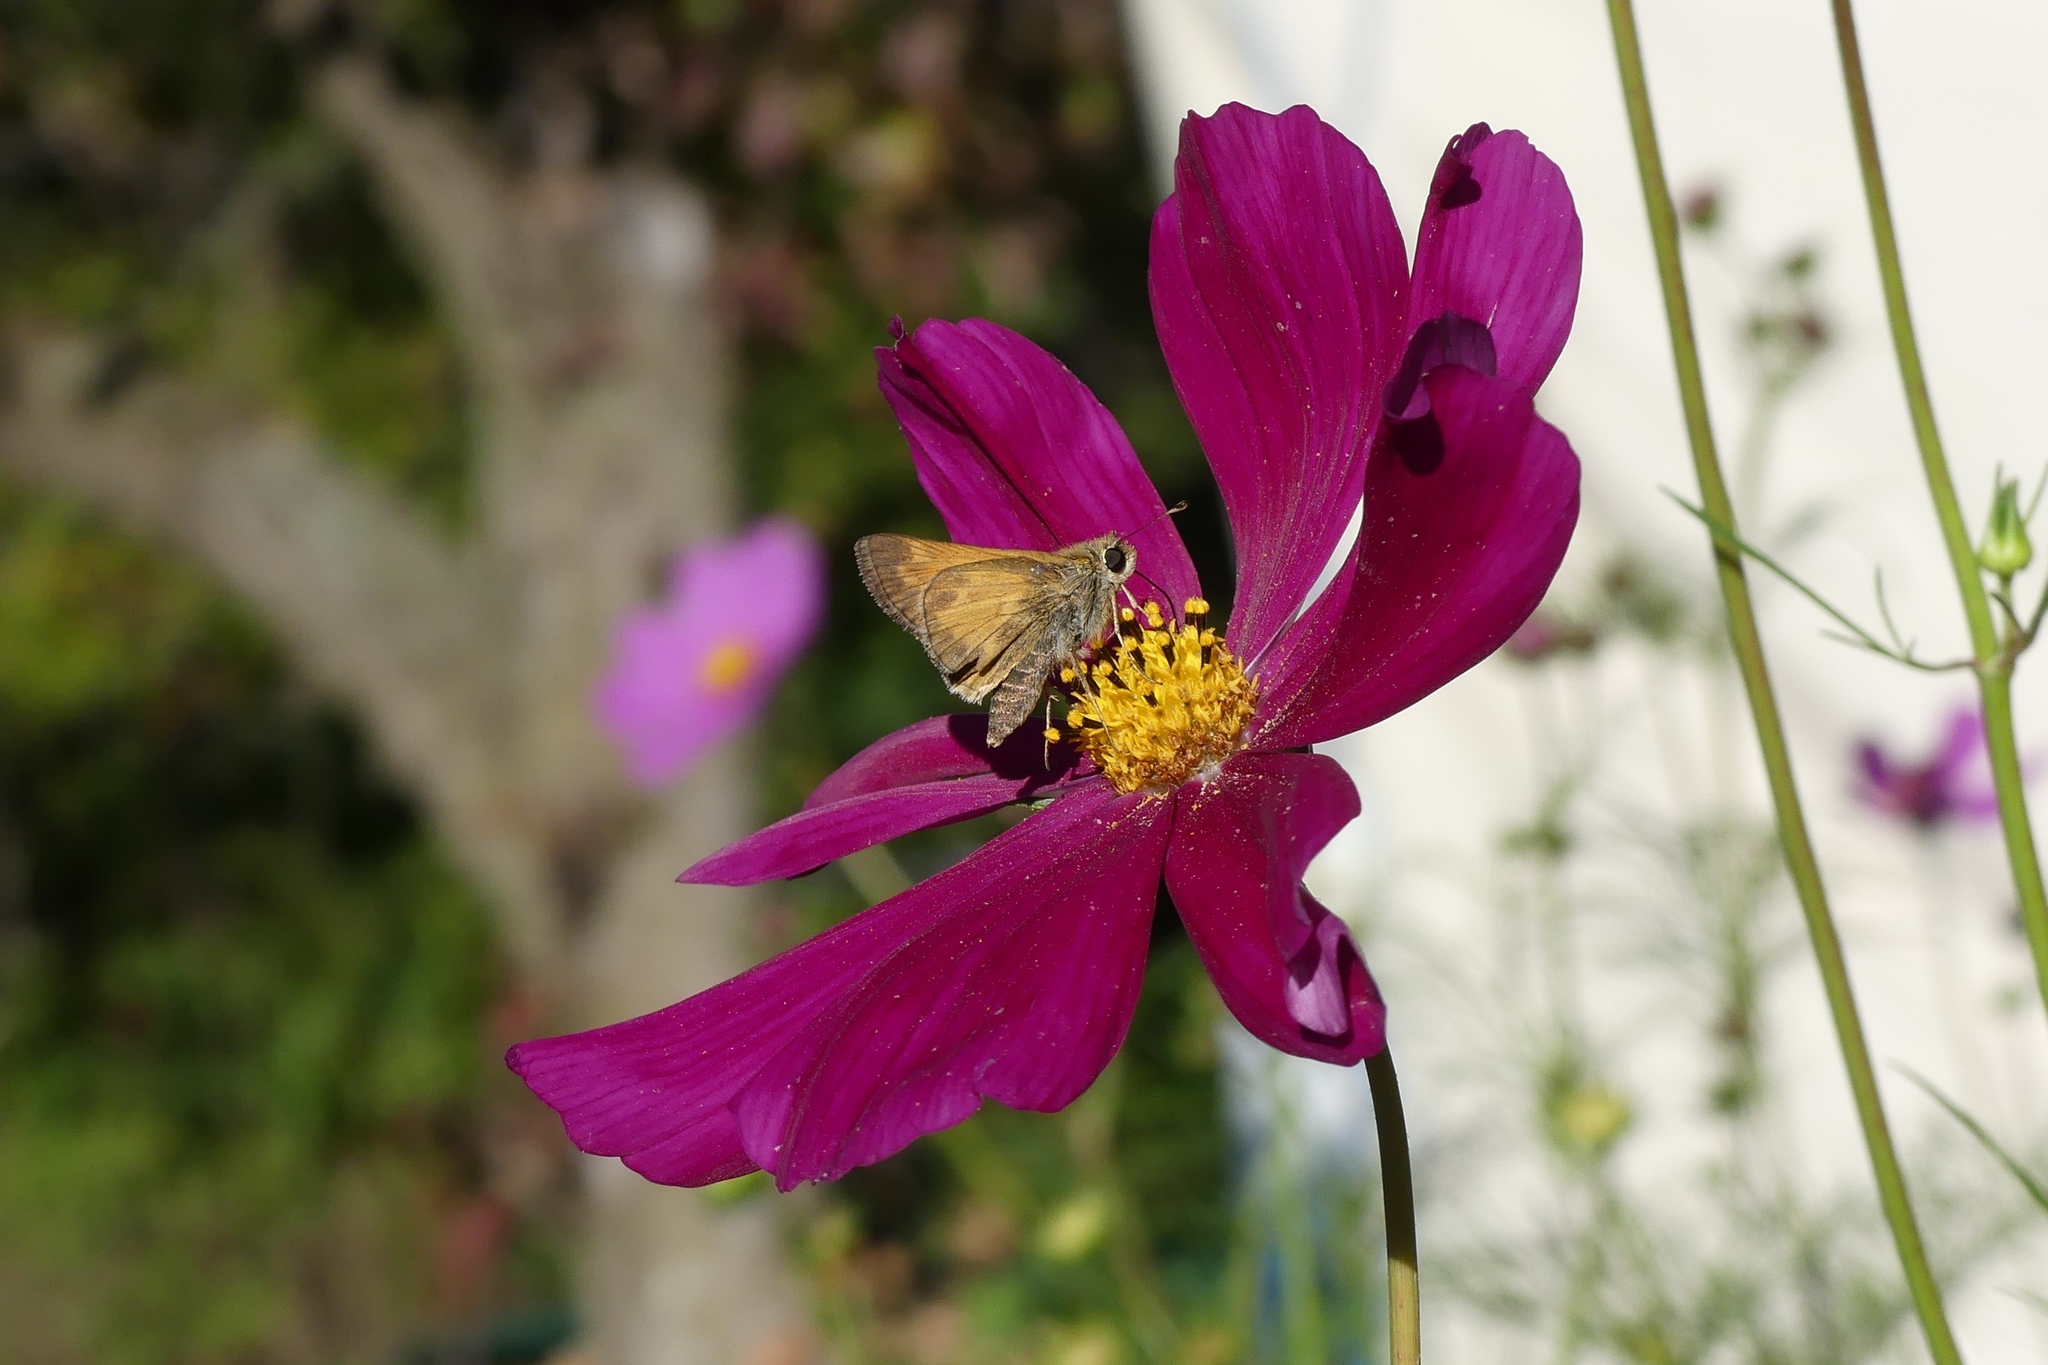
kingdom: Animalia
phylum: Arthropoda
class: Insecta
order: Lepidoptera
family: Hesperiidae
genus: Atalopedes
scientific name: Atalopedes
